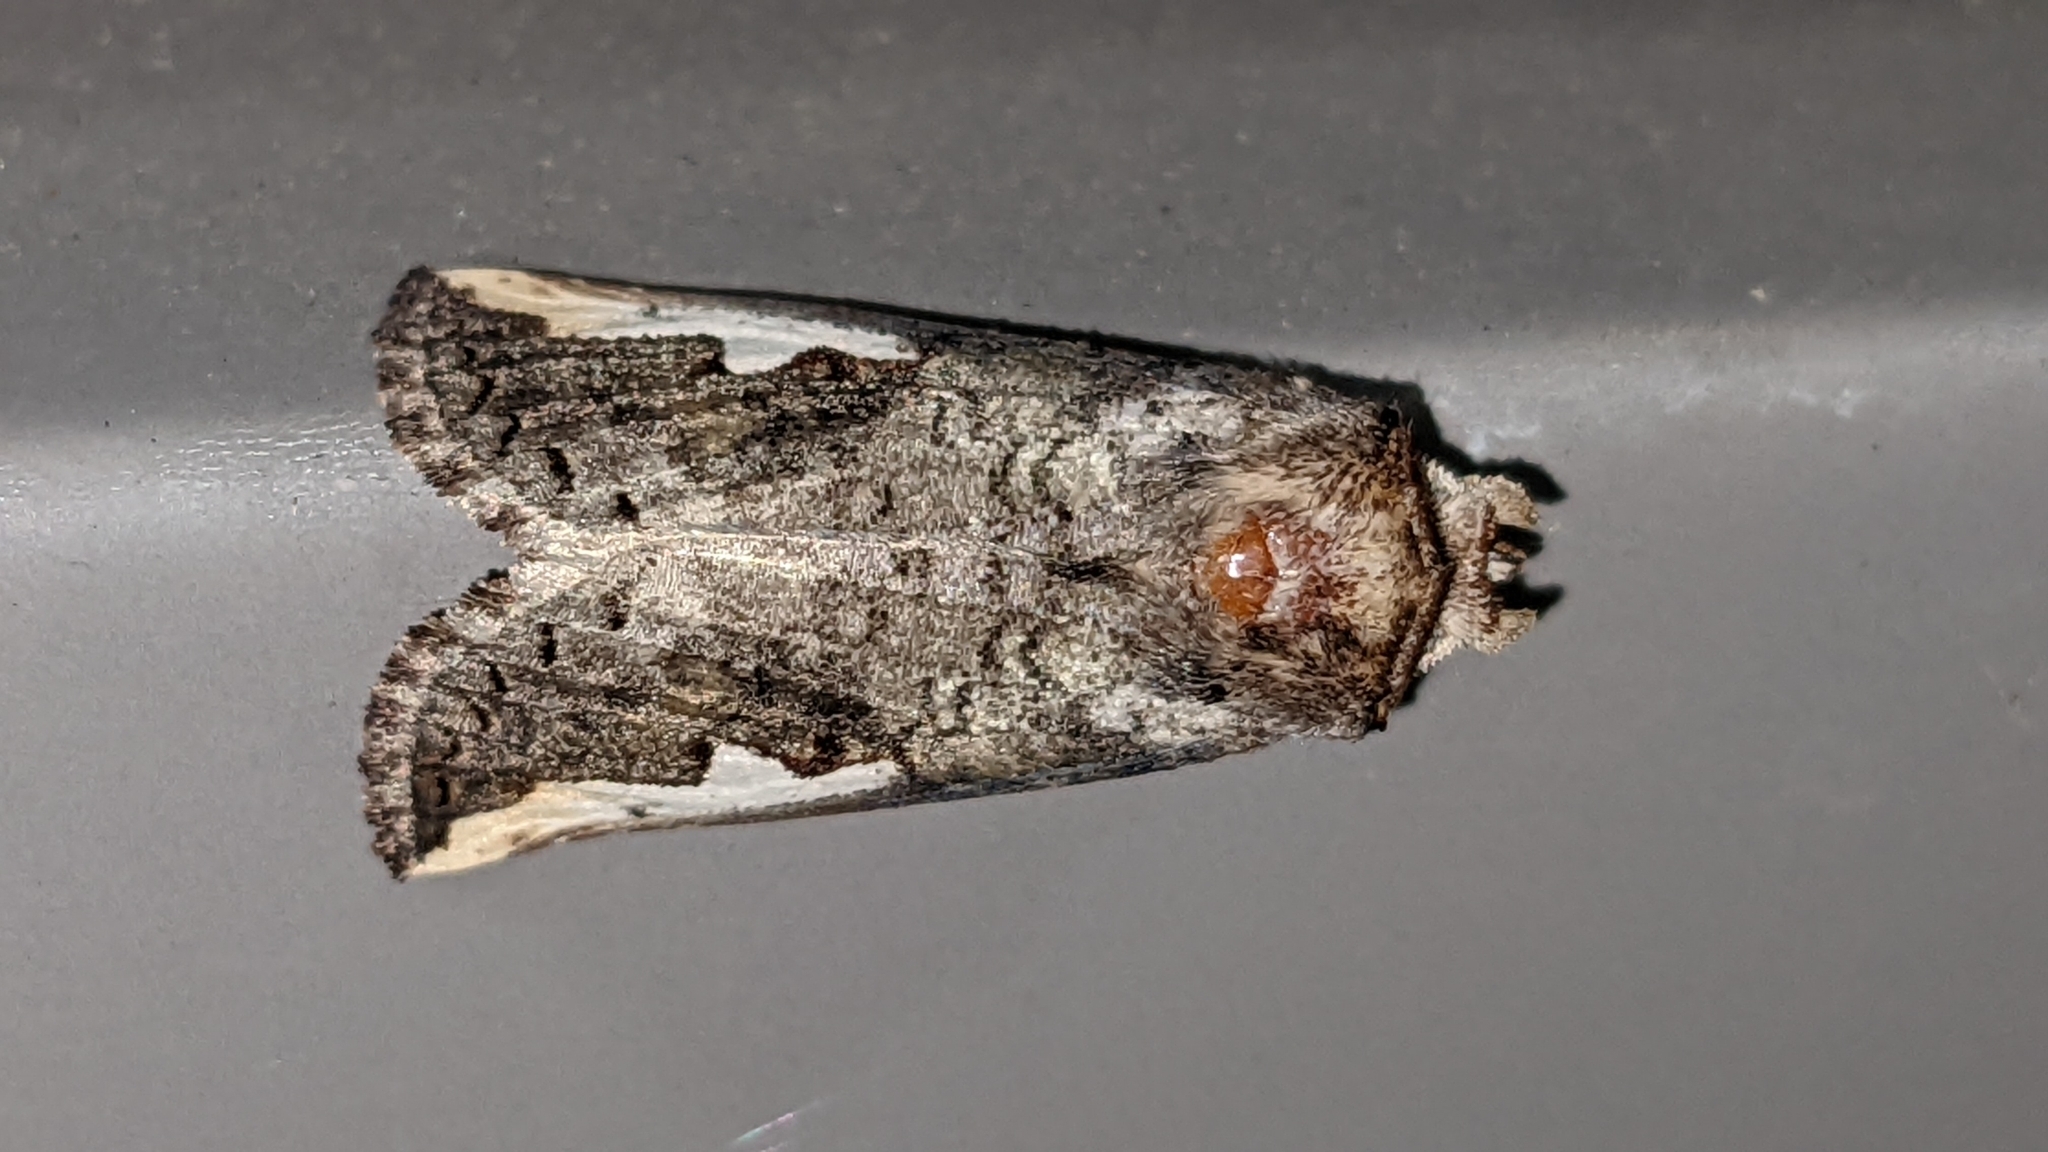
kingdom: Animalia
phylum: Arthropoda
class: Insecta
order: Lepidoptera
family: Notodontidae
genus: Symmerista
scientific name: Symmerista albifrons
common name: White-headed prominent
